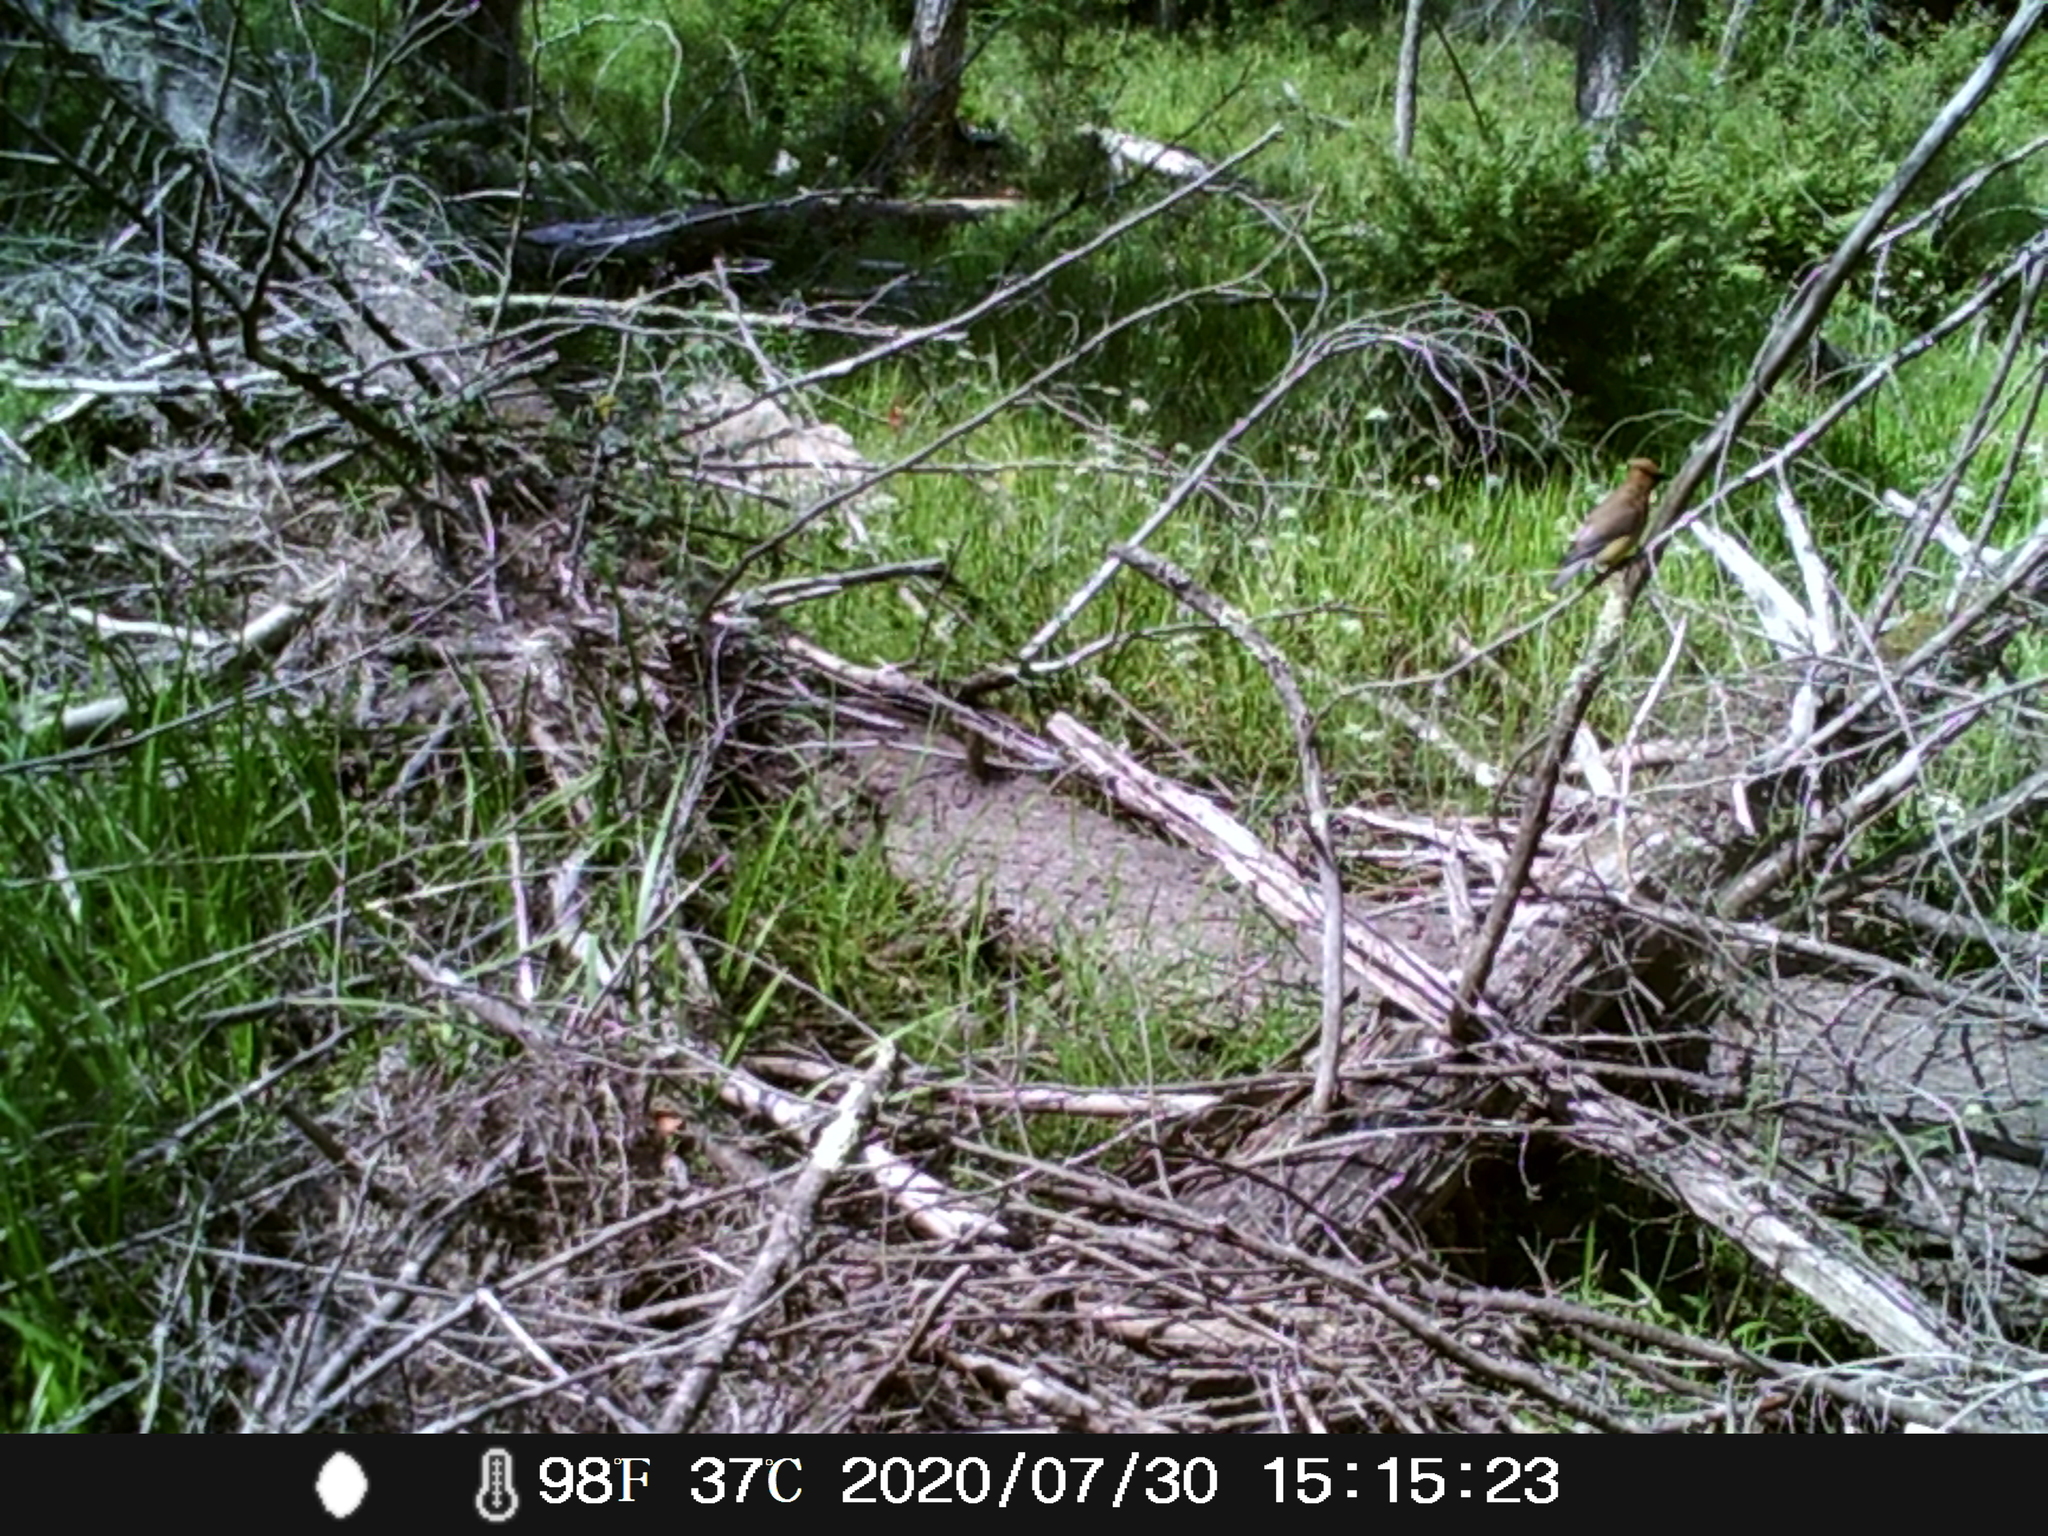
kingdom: Animalia
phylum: Chordata
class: Aves
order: Passeriformes
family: Bombycillidae
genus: Bombycilla
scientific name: Bombycilla cedrorum
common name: Cedar waxwing
